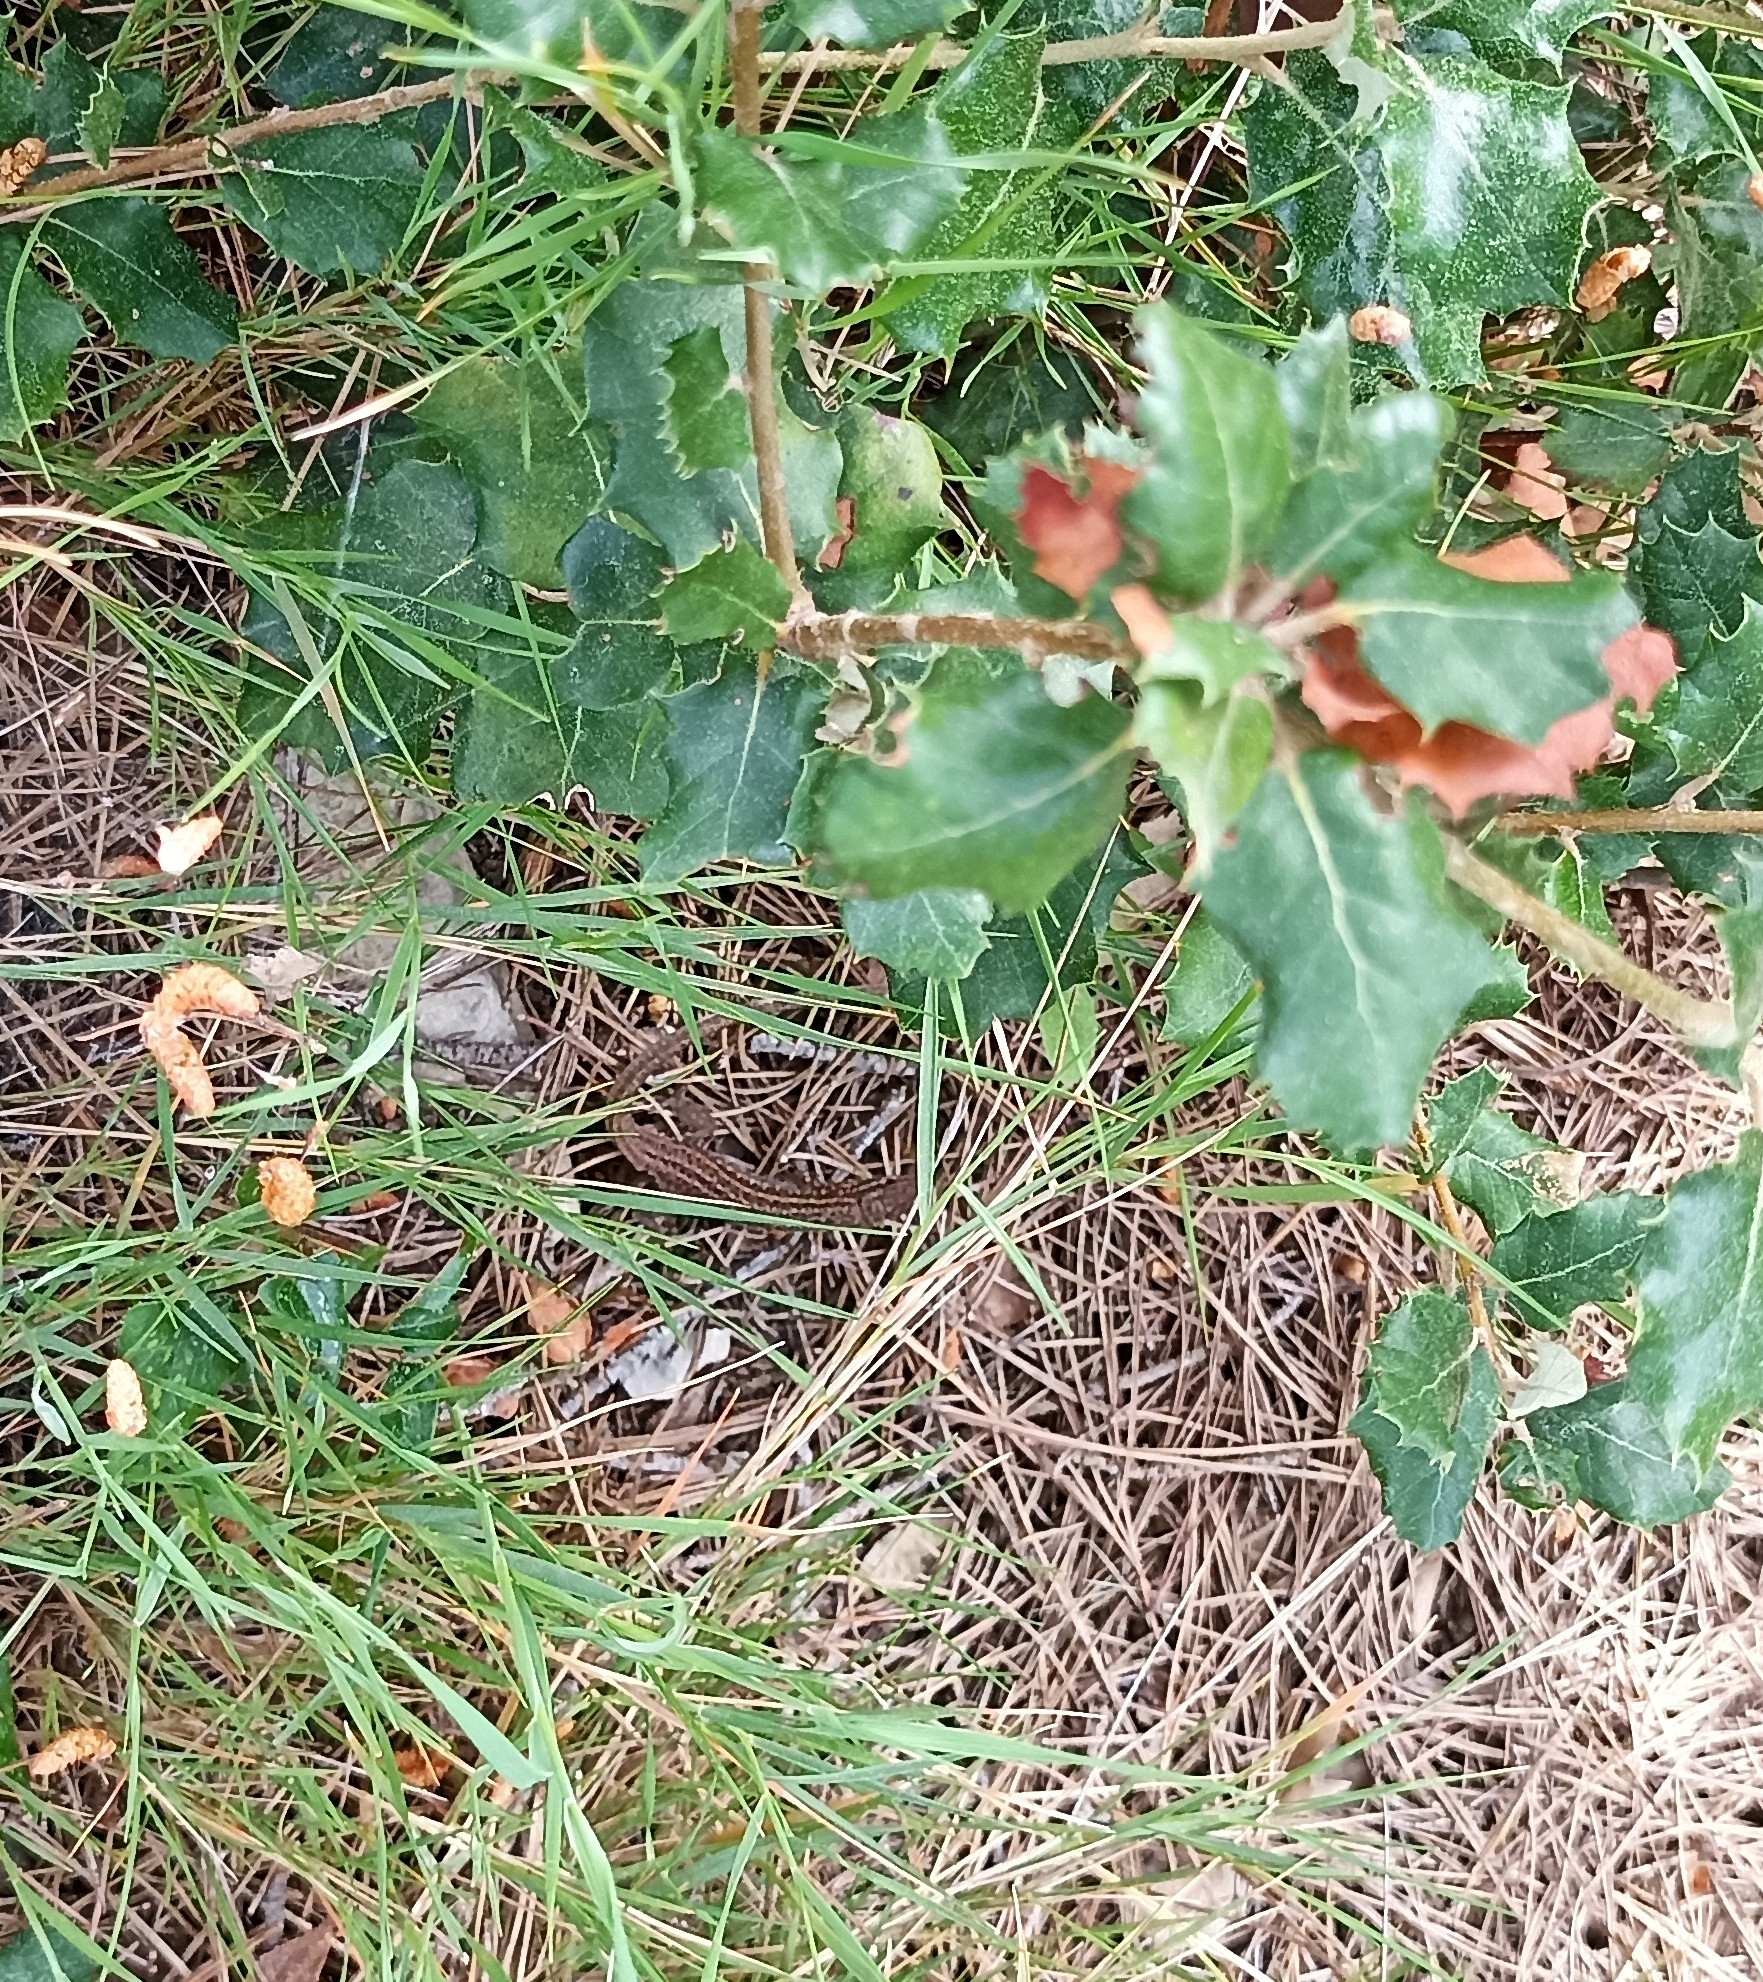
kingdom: Animalia
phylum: Chordata
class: Squamata
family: Lacertidae
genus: Psammodromus
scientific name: Psammodromus edwarsianus
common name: East iberian psammodromus
